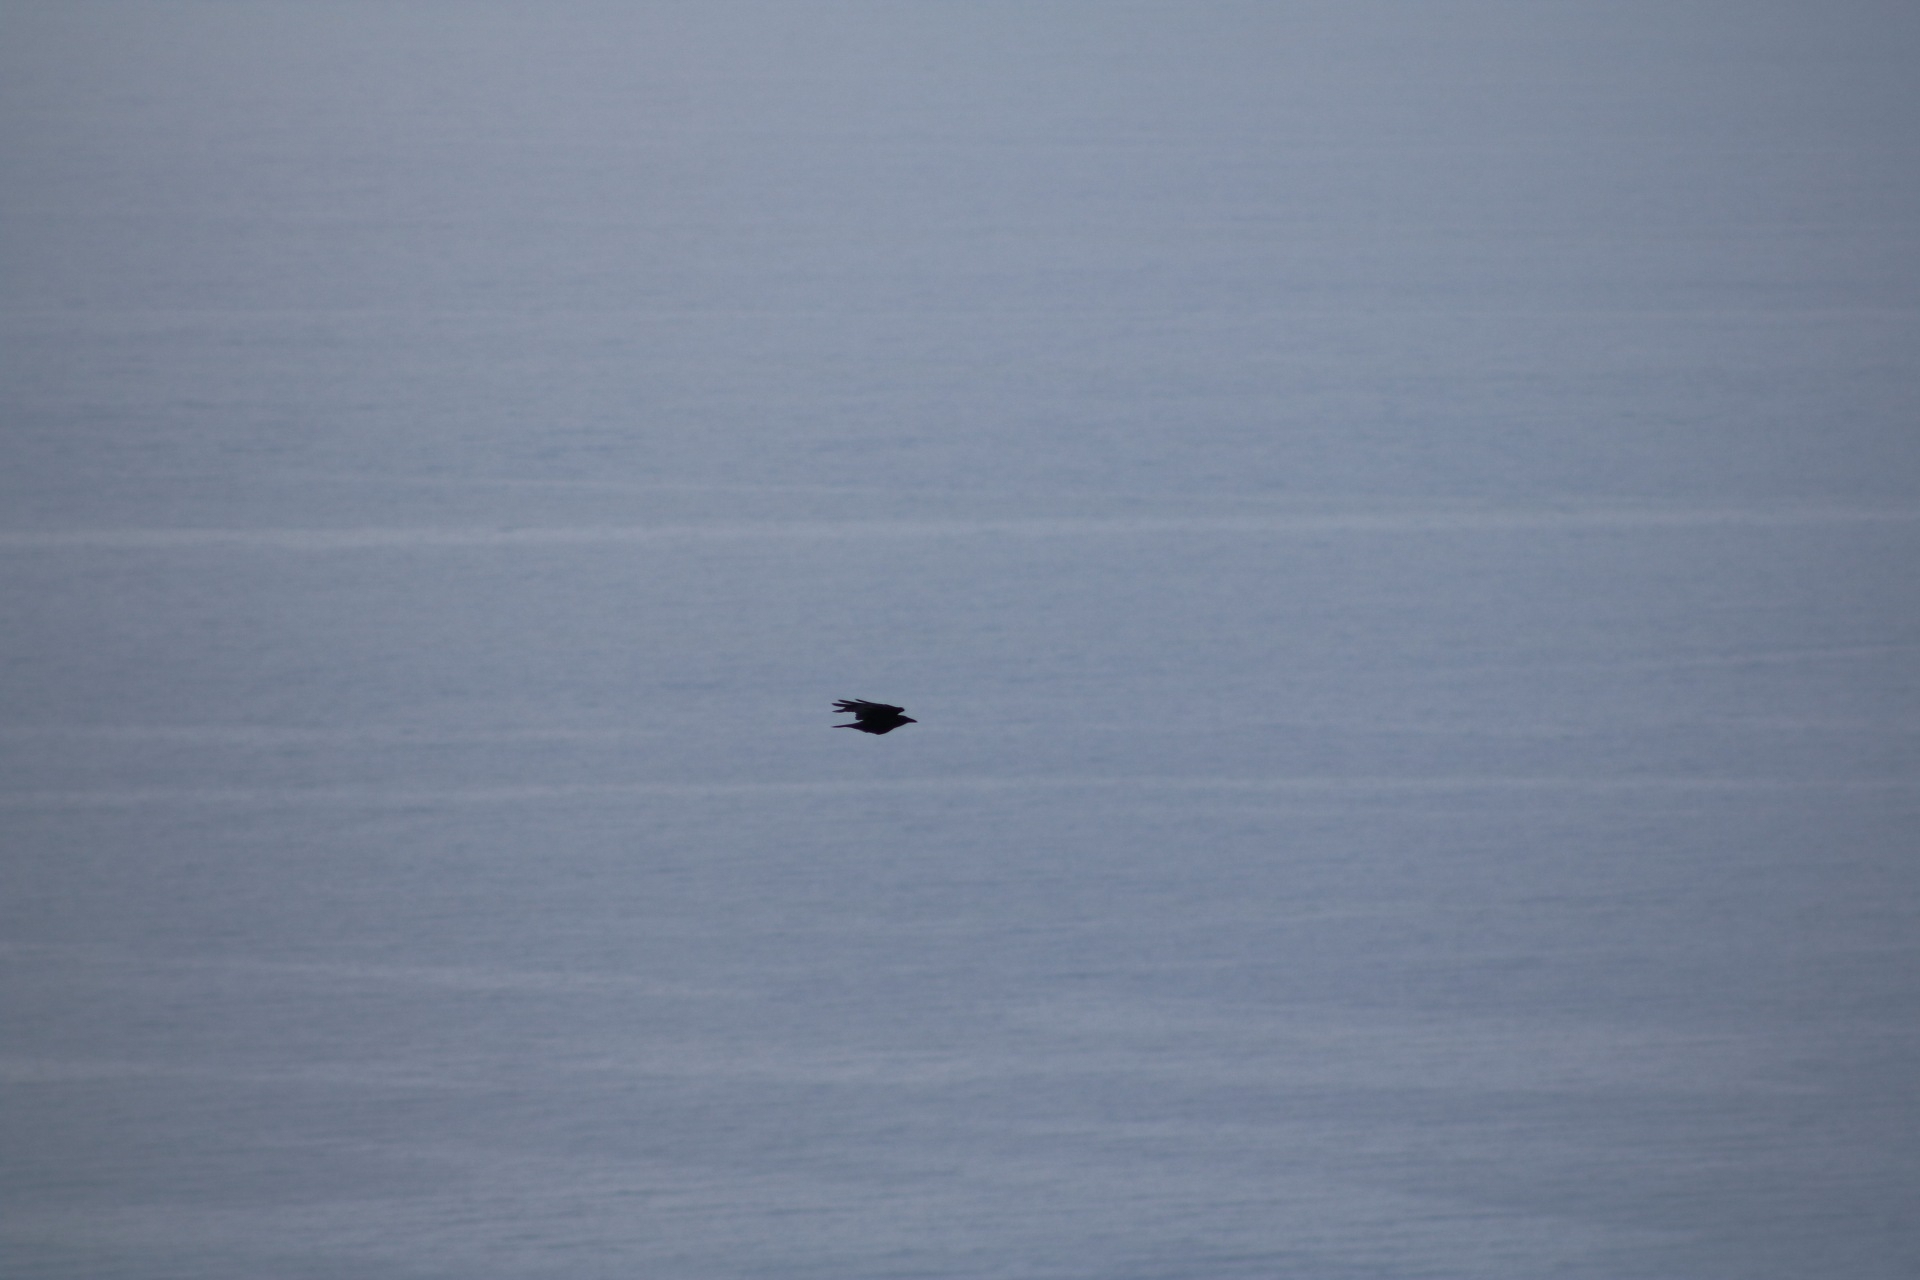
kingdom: Animalia
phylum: Chordata
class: Aves
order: Passeriformes
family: Corvidae
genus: Corvus
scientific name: Corvus corax
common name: Common raven
